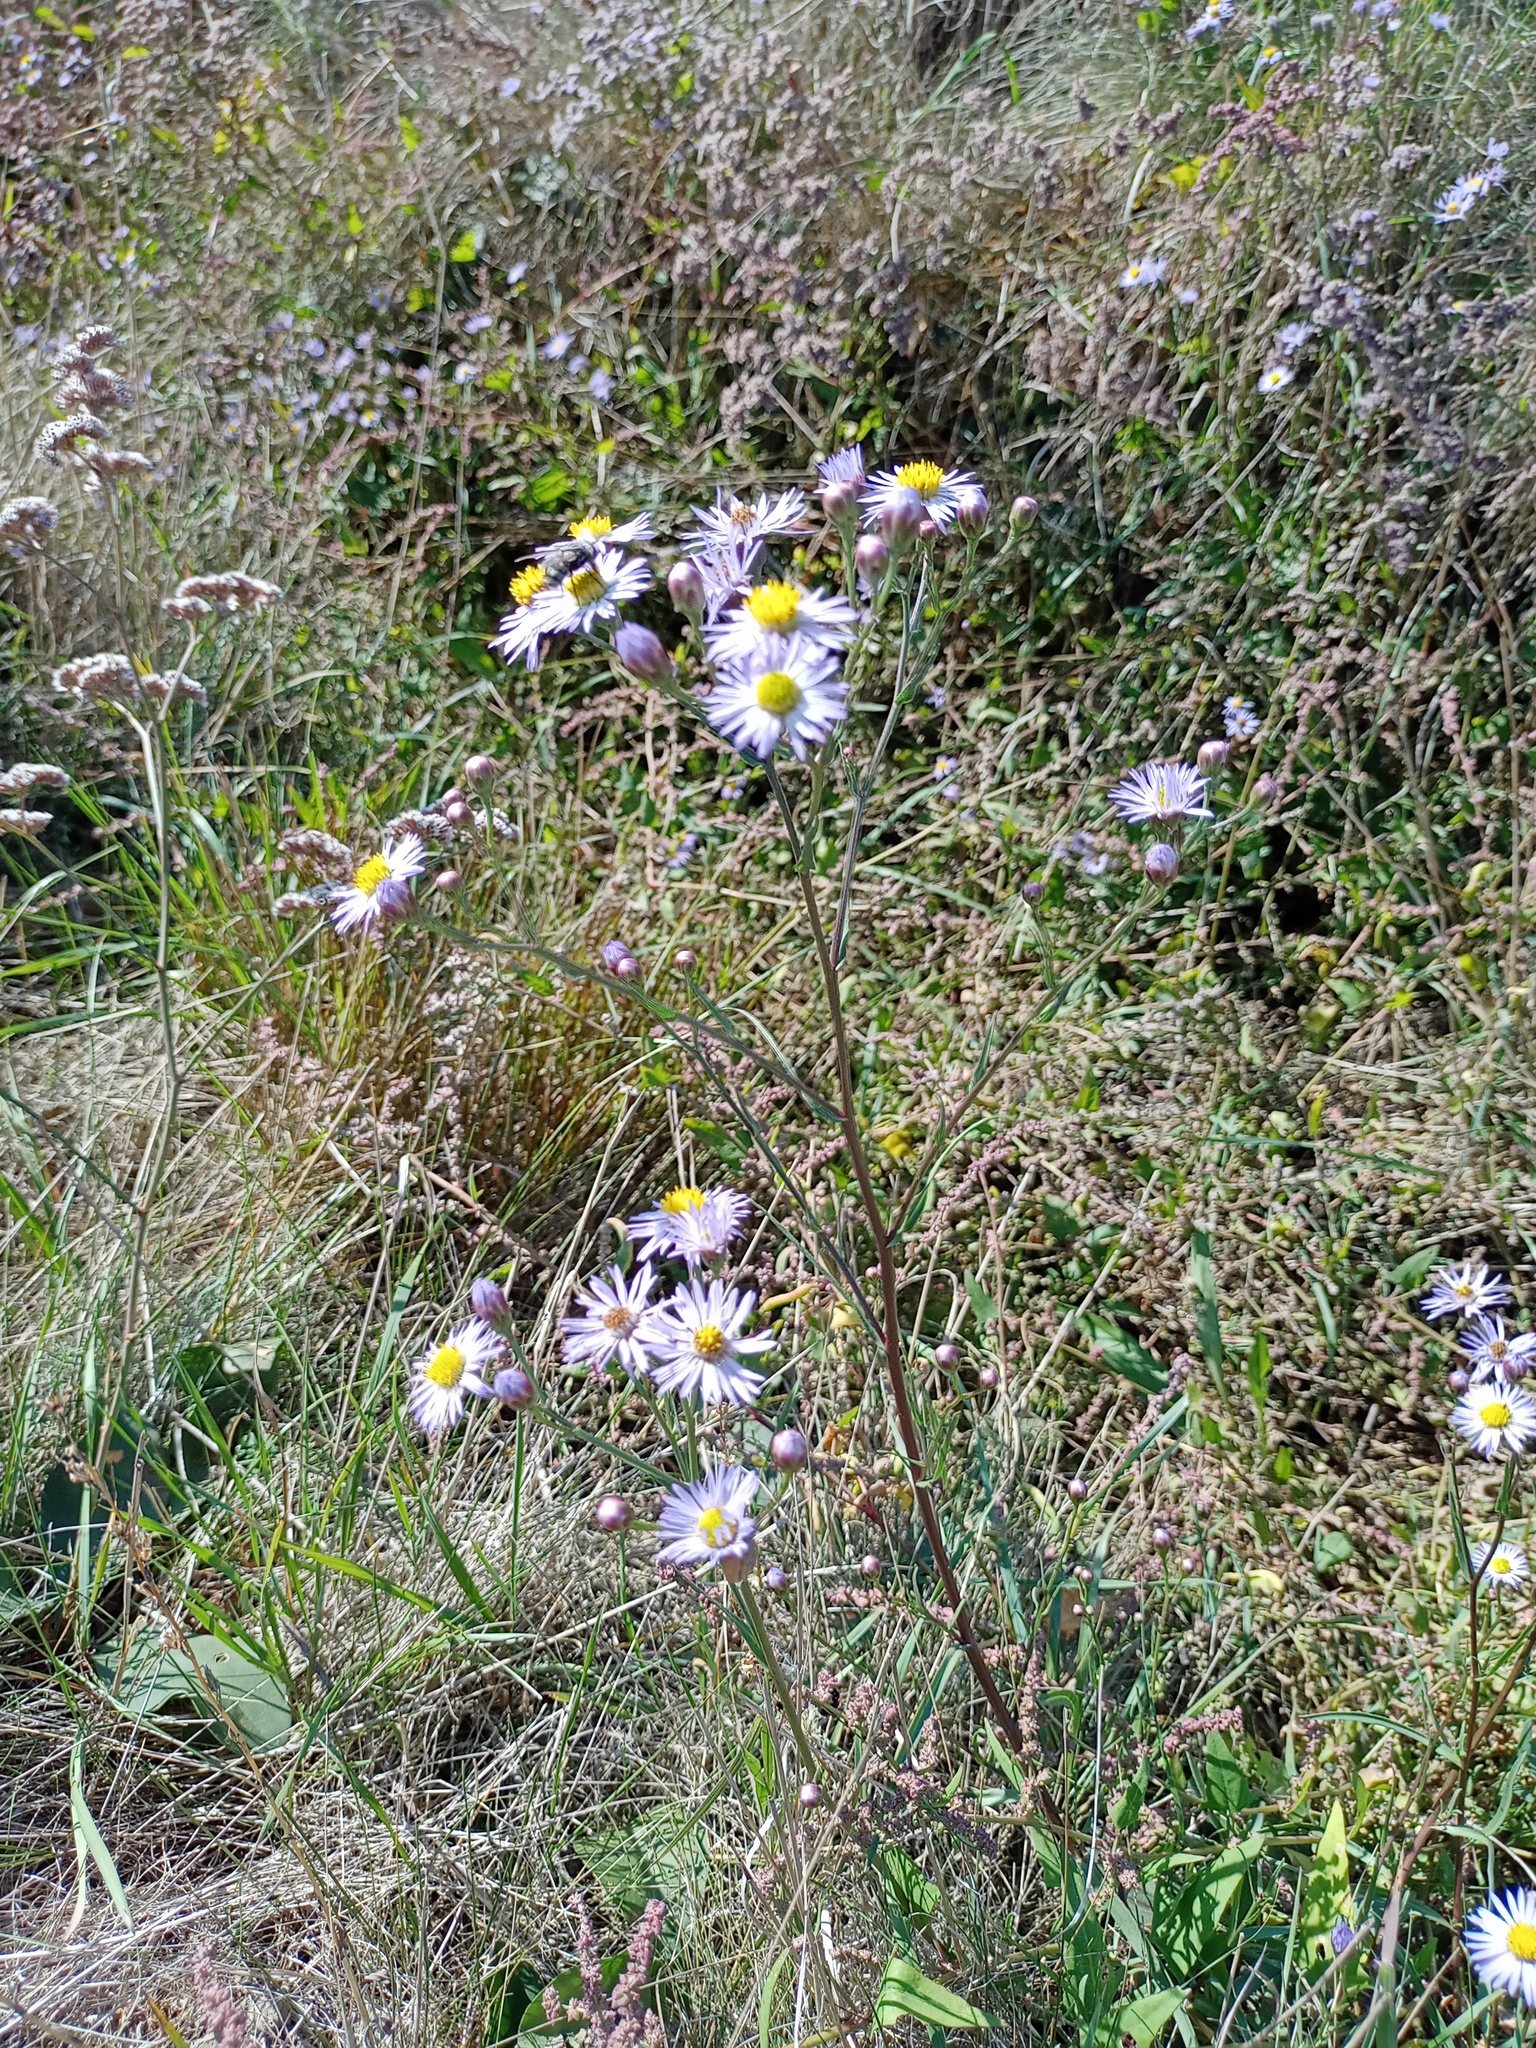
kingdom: Plantae
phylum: Tracheophyta
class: Magnoliopsida
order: Asterales
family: Asteraceae
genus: Tripolium
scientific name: Tripolium pannonicum
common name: Sea aster
